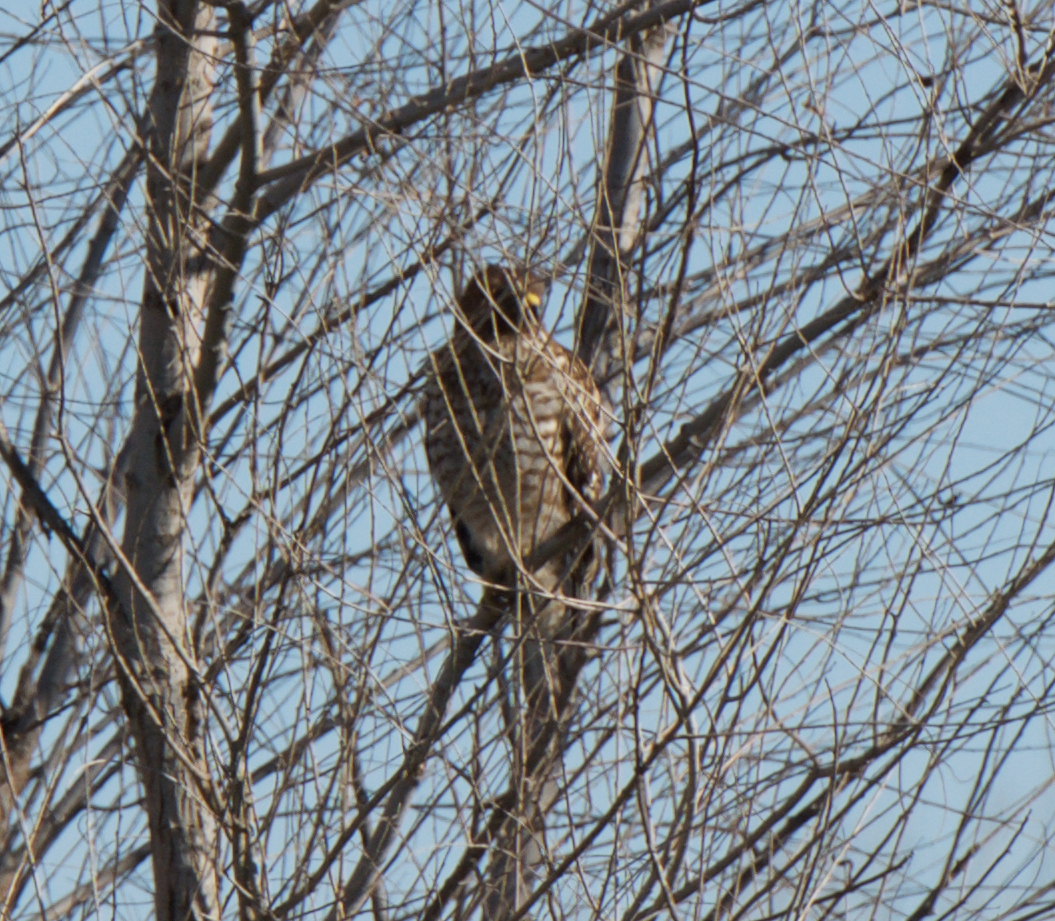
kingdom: Animalia
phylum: Chordata
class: Aves
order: Accipitriformes
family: Accipitridae
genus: Buteo
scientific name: Buteo lineatus
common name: Red-shouldered hawk
